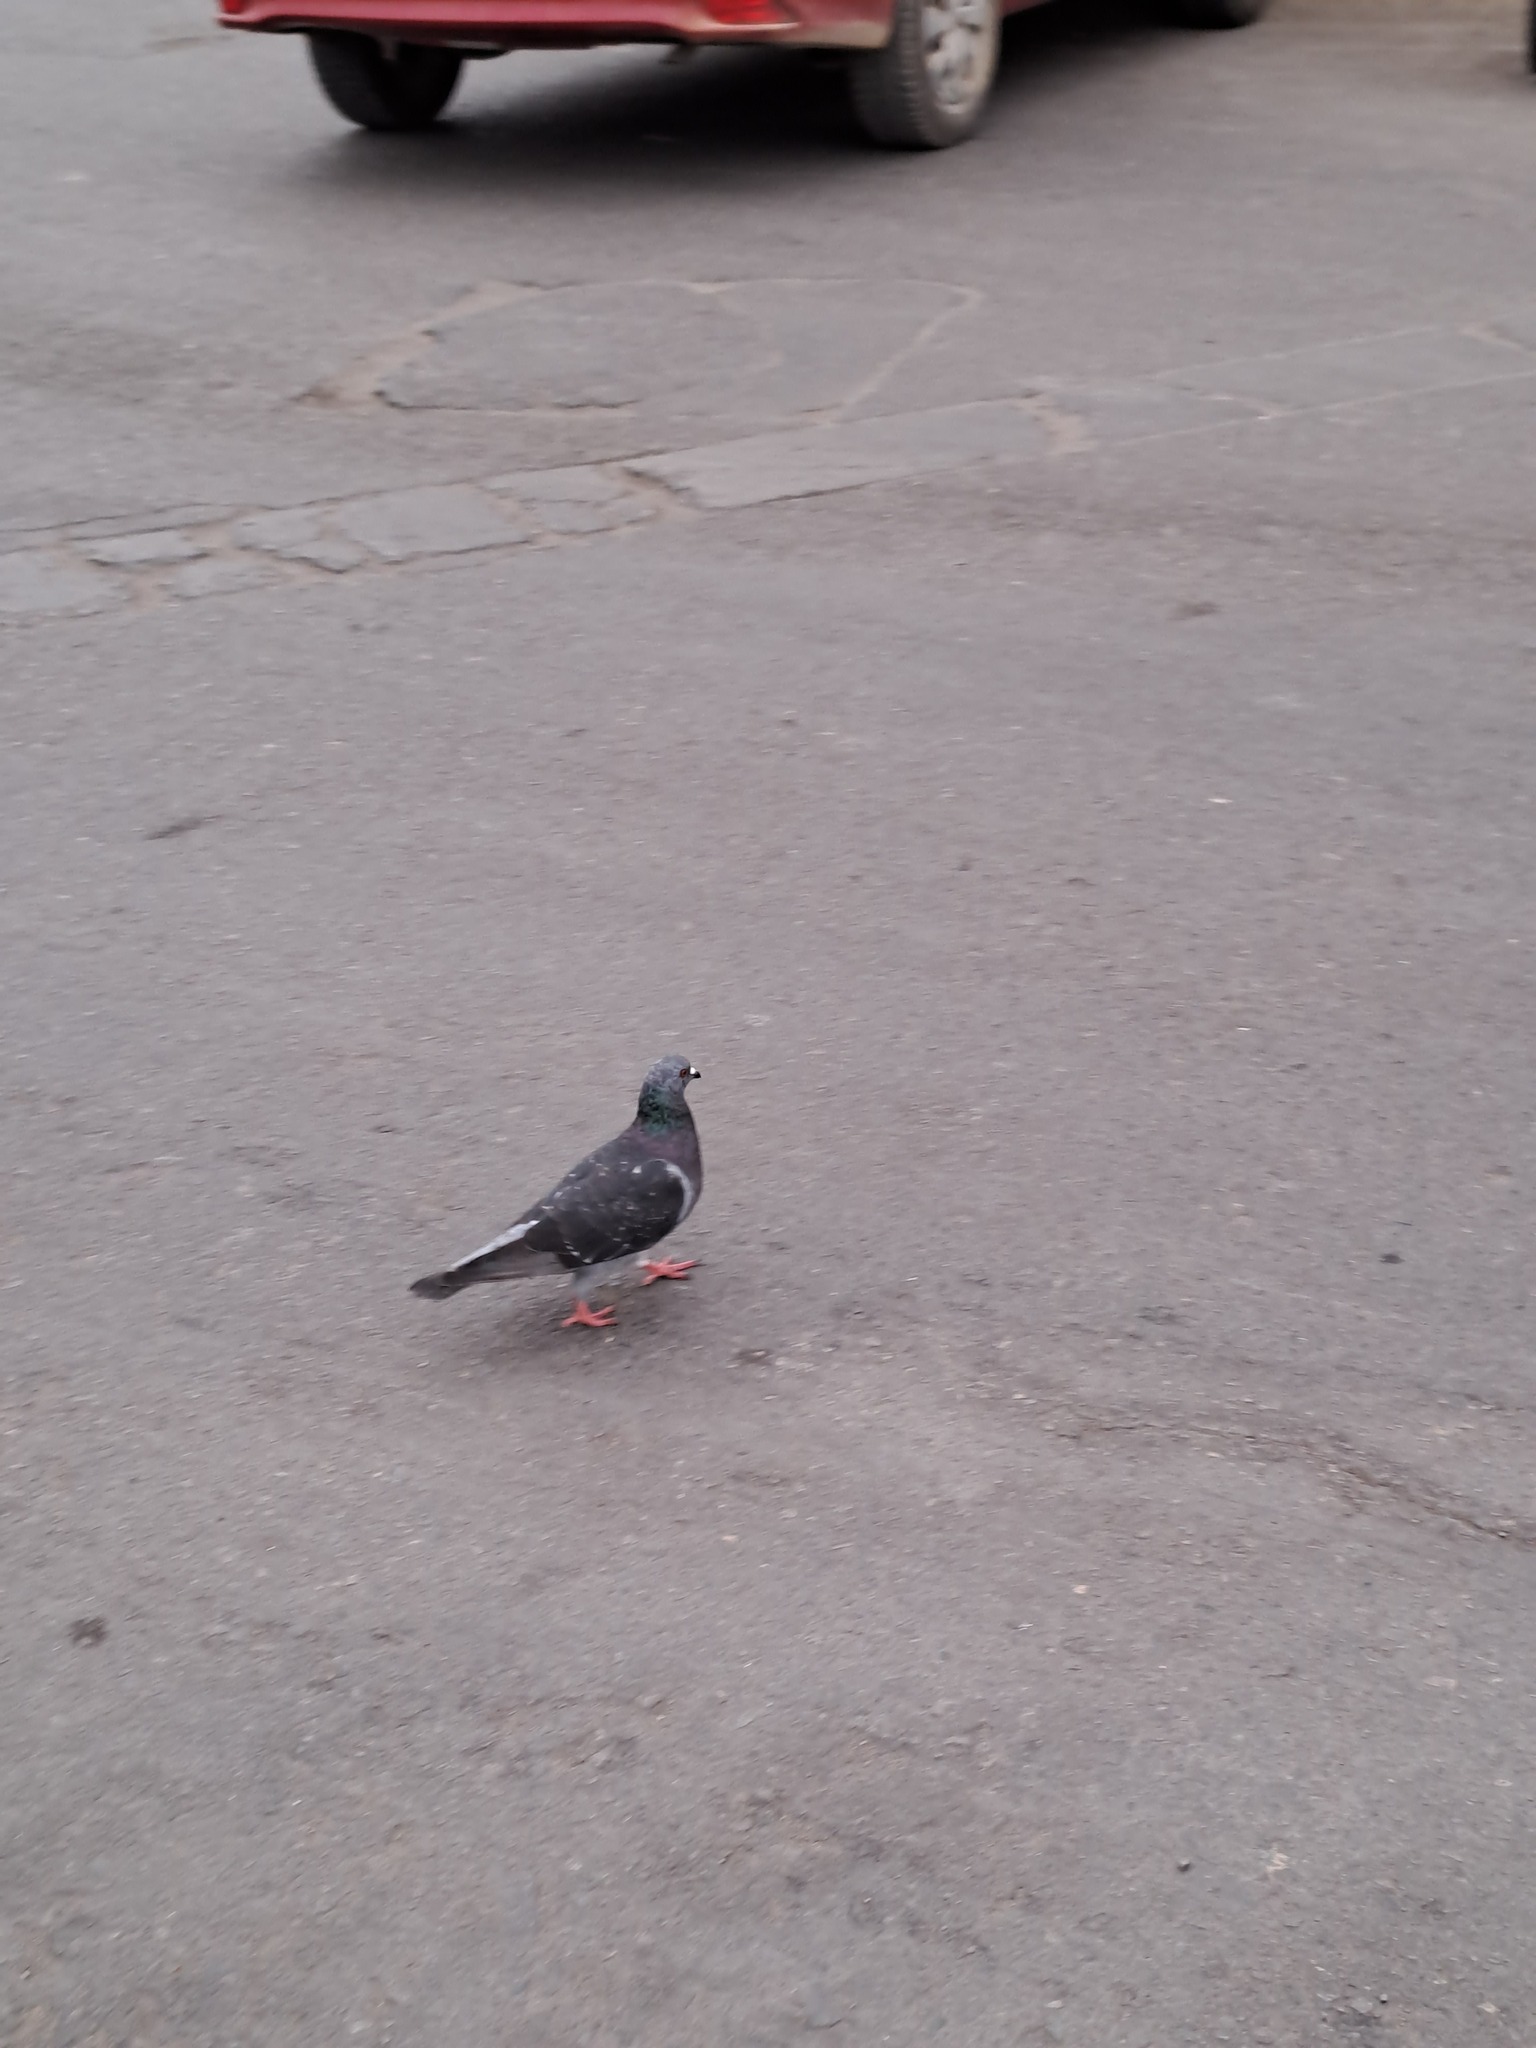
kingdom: Animalia
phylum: Chordata
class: Aves
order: Columbiformes
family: Columbidae
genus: Columba
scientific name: Columba livia
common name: Rock pigeon
